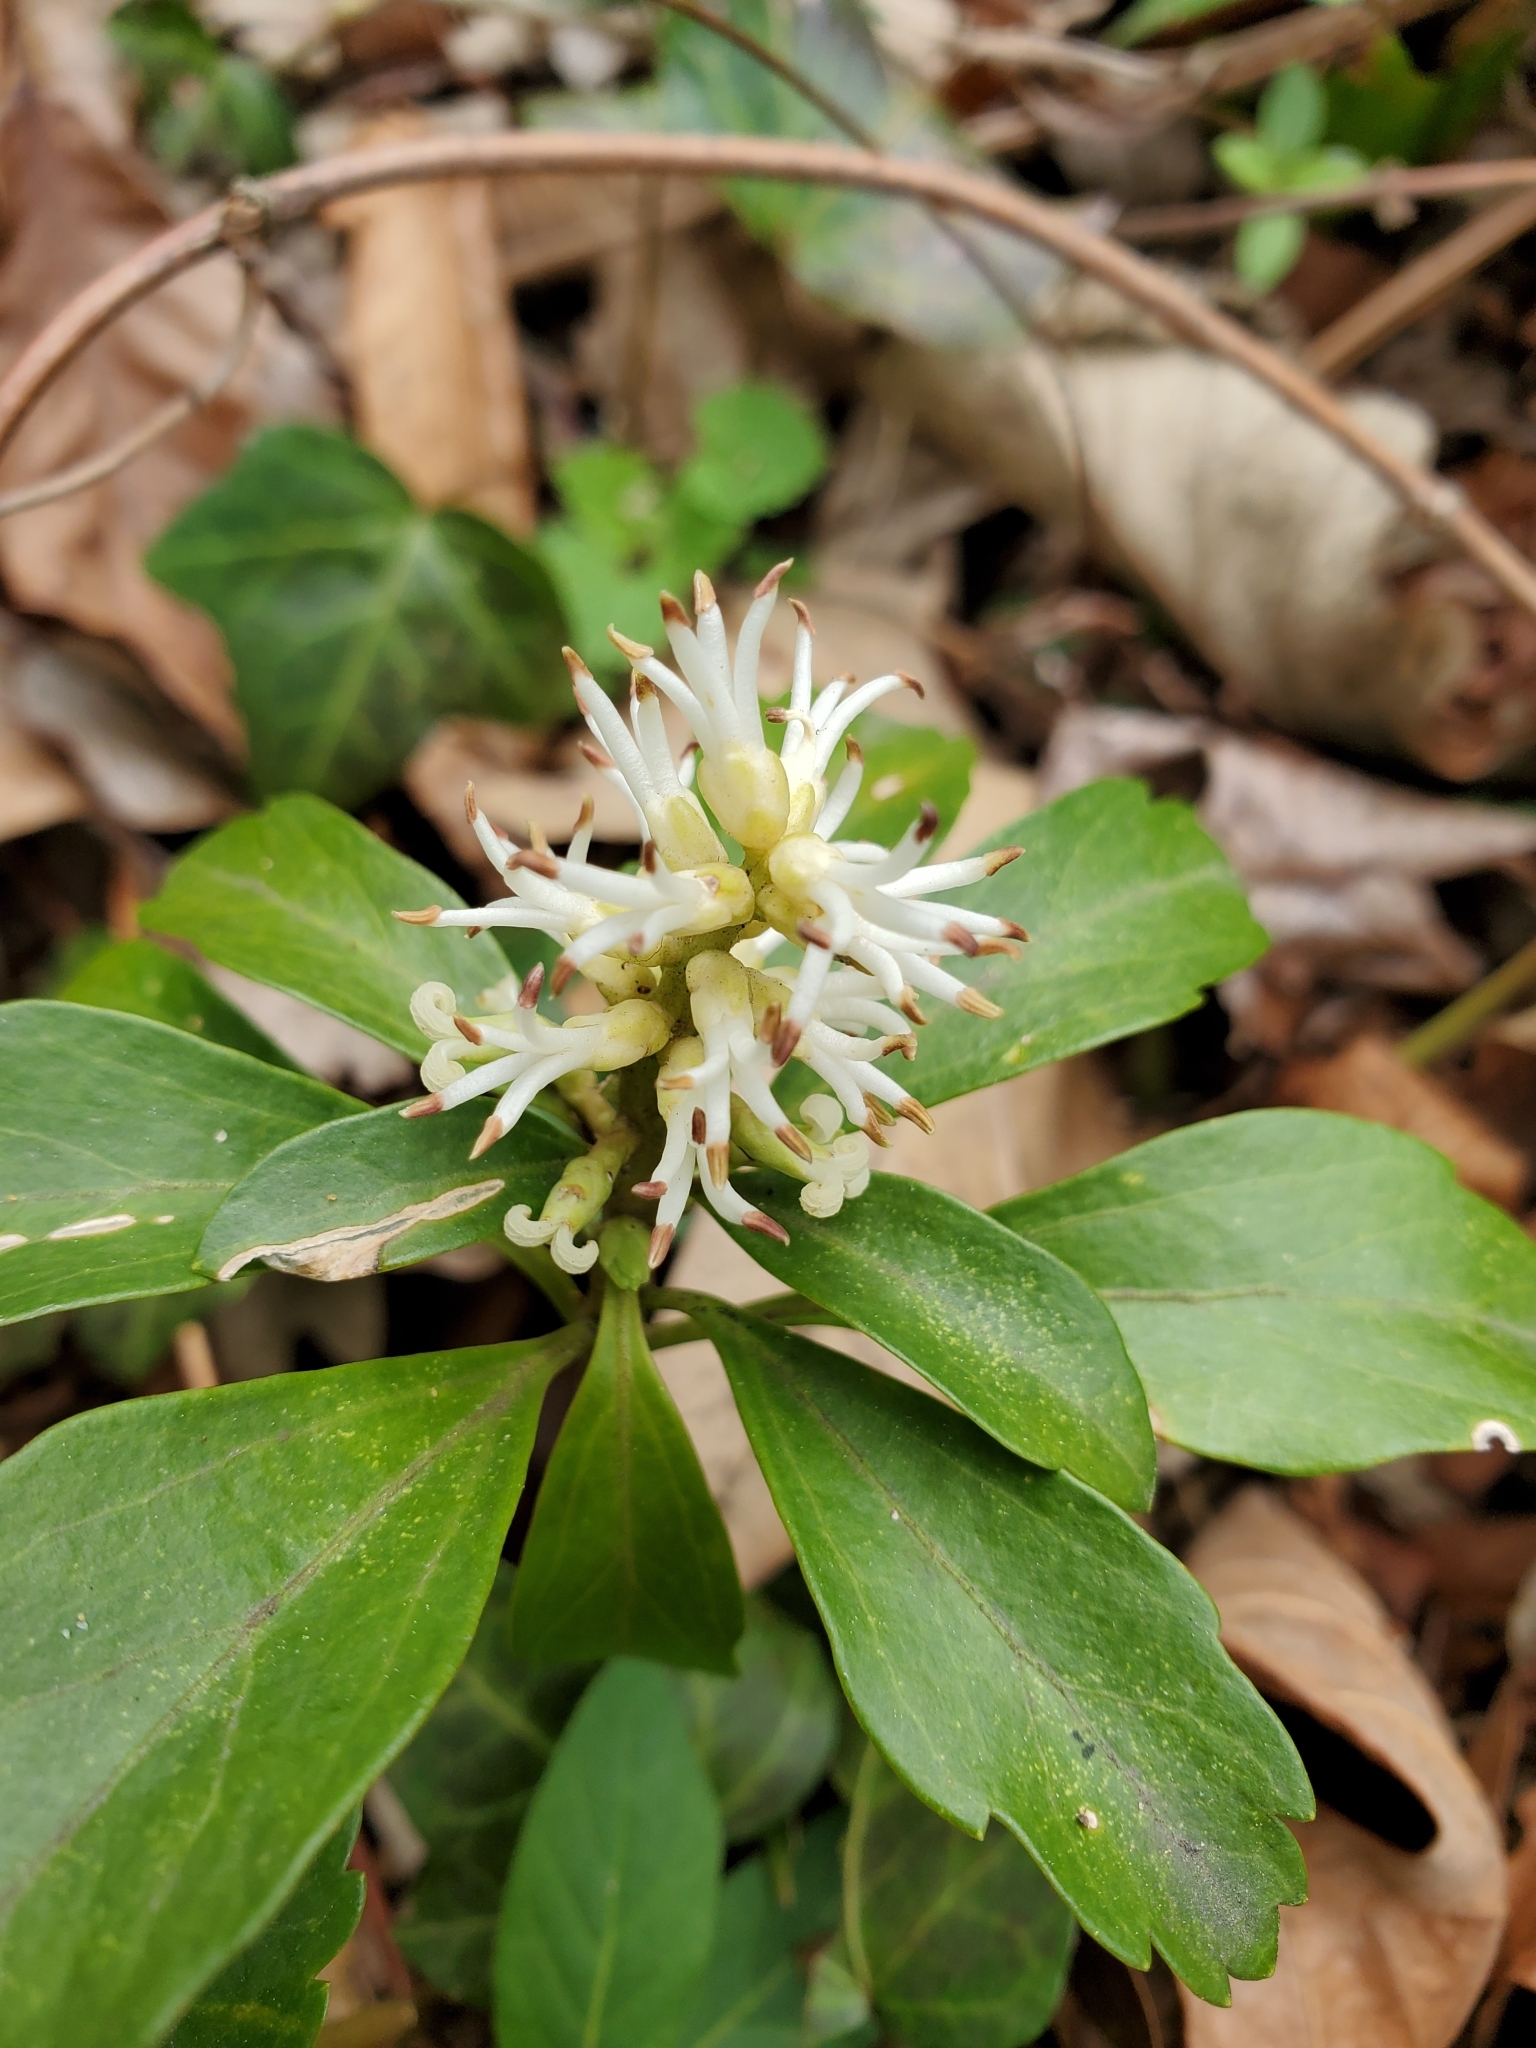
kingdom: Plantae
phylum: Tracheophyta
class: Magnoliopsida
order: Buxales
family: Buxaceae
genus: Pachysandra
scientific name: Pachysandra terminalis
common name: Japanese pachysandra
